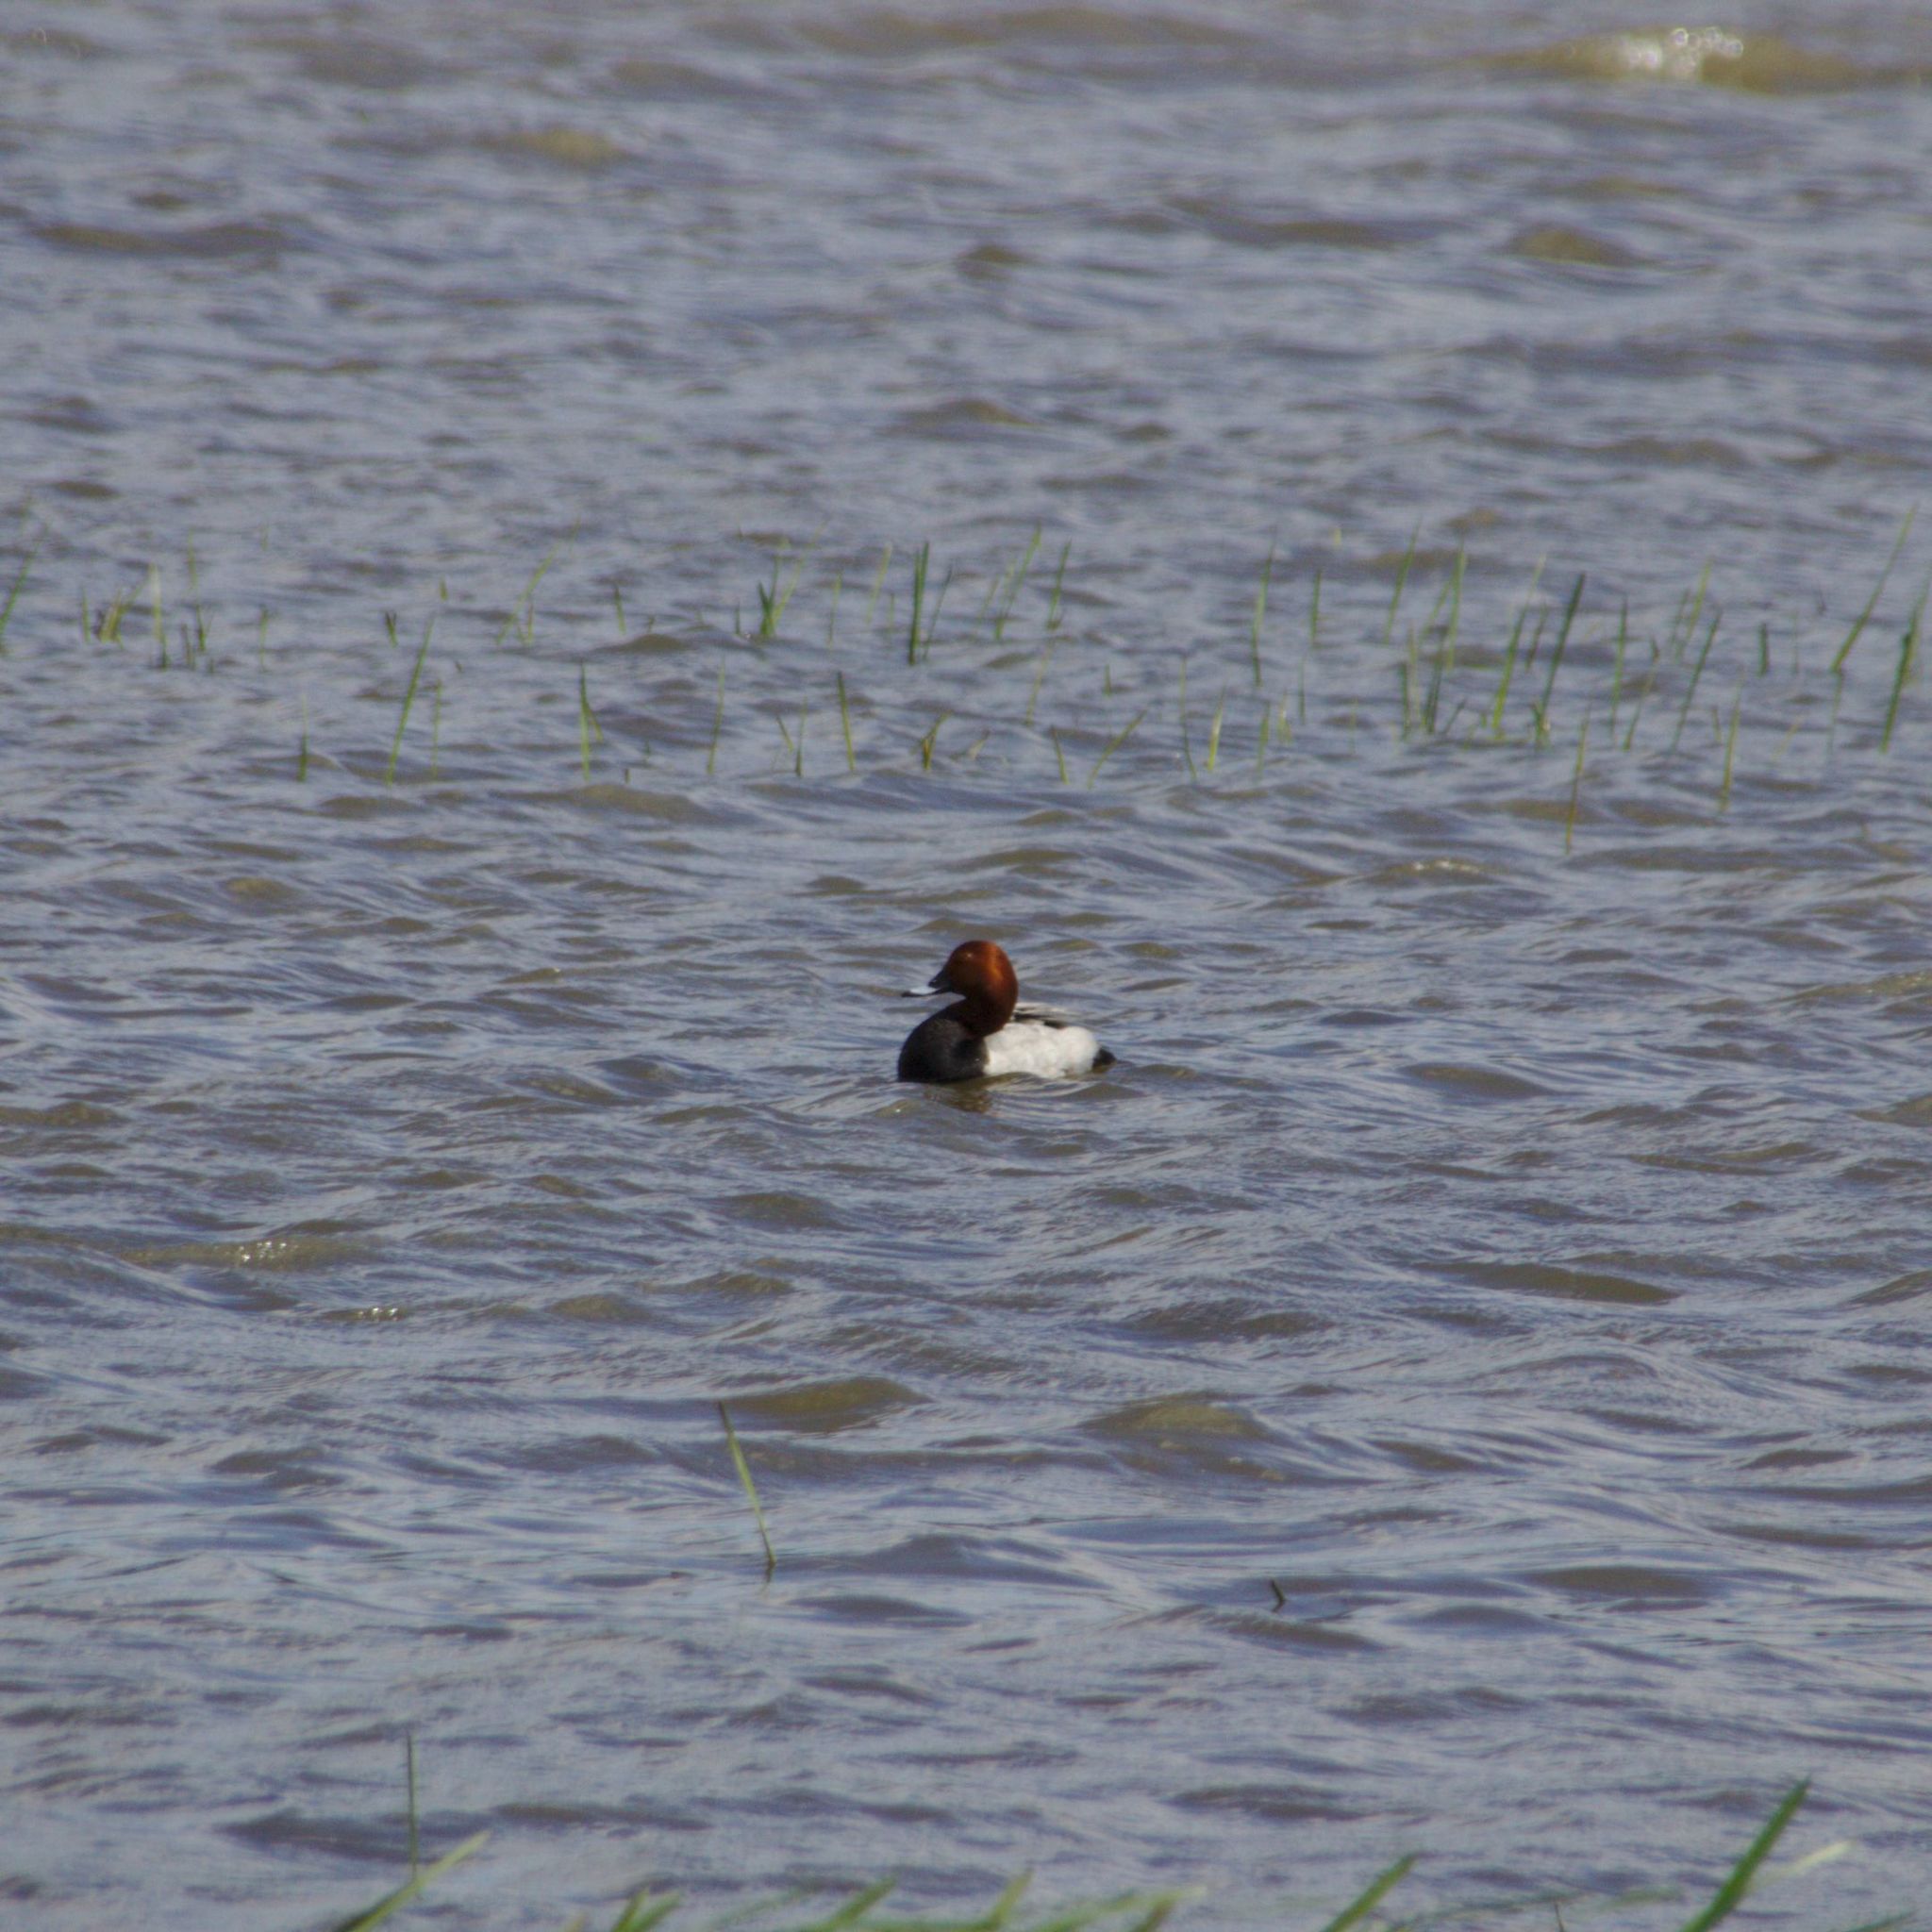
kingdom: Animalia
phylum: Chordata
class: Aves
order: Anseriformes
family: Anatidae
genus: Aythya
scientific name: Aythya ferina
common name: Common pochard
